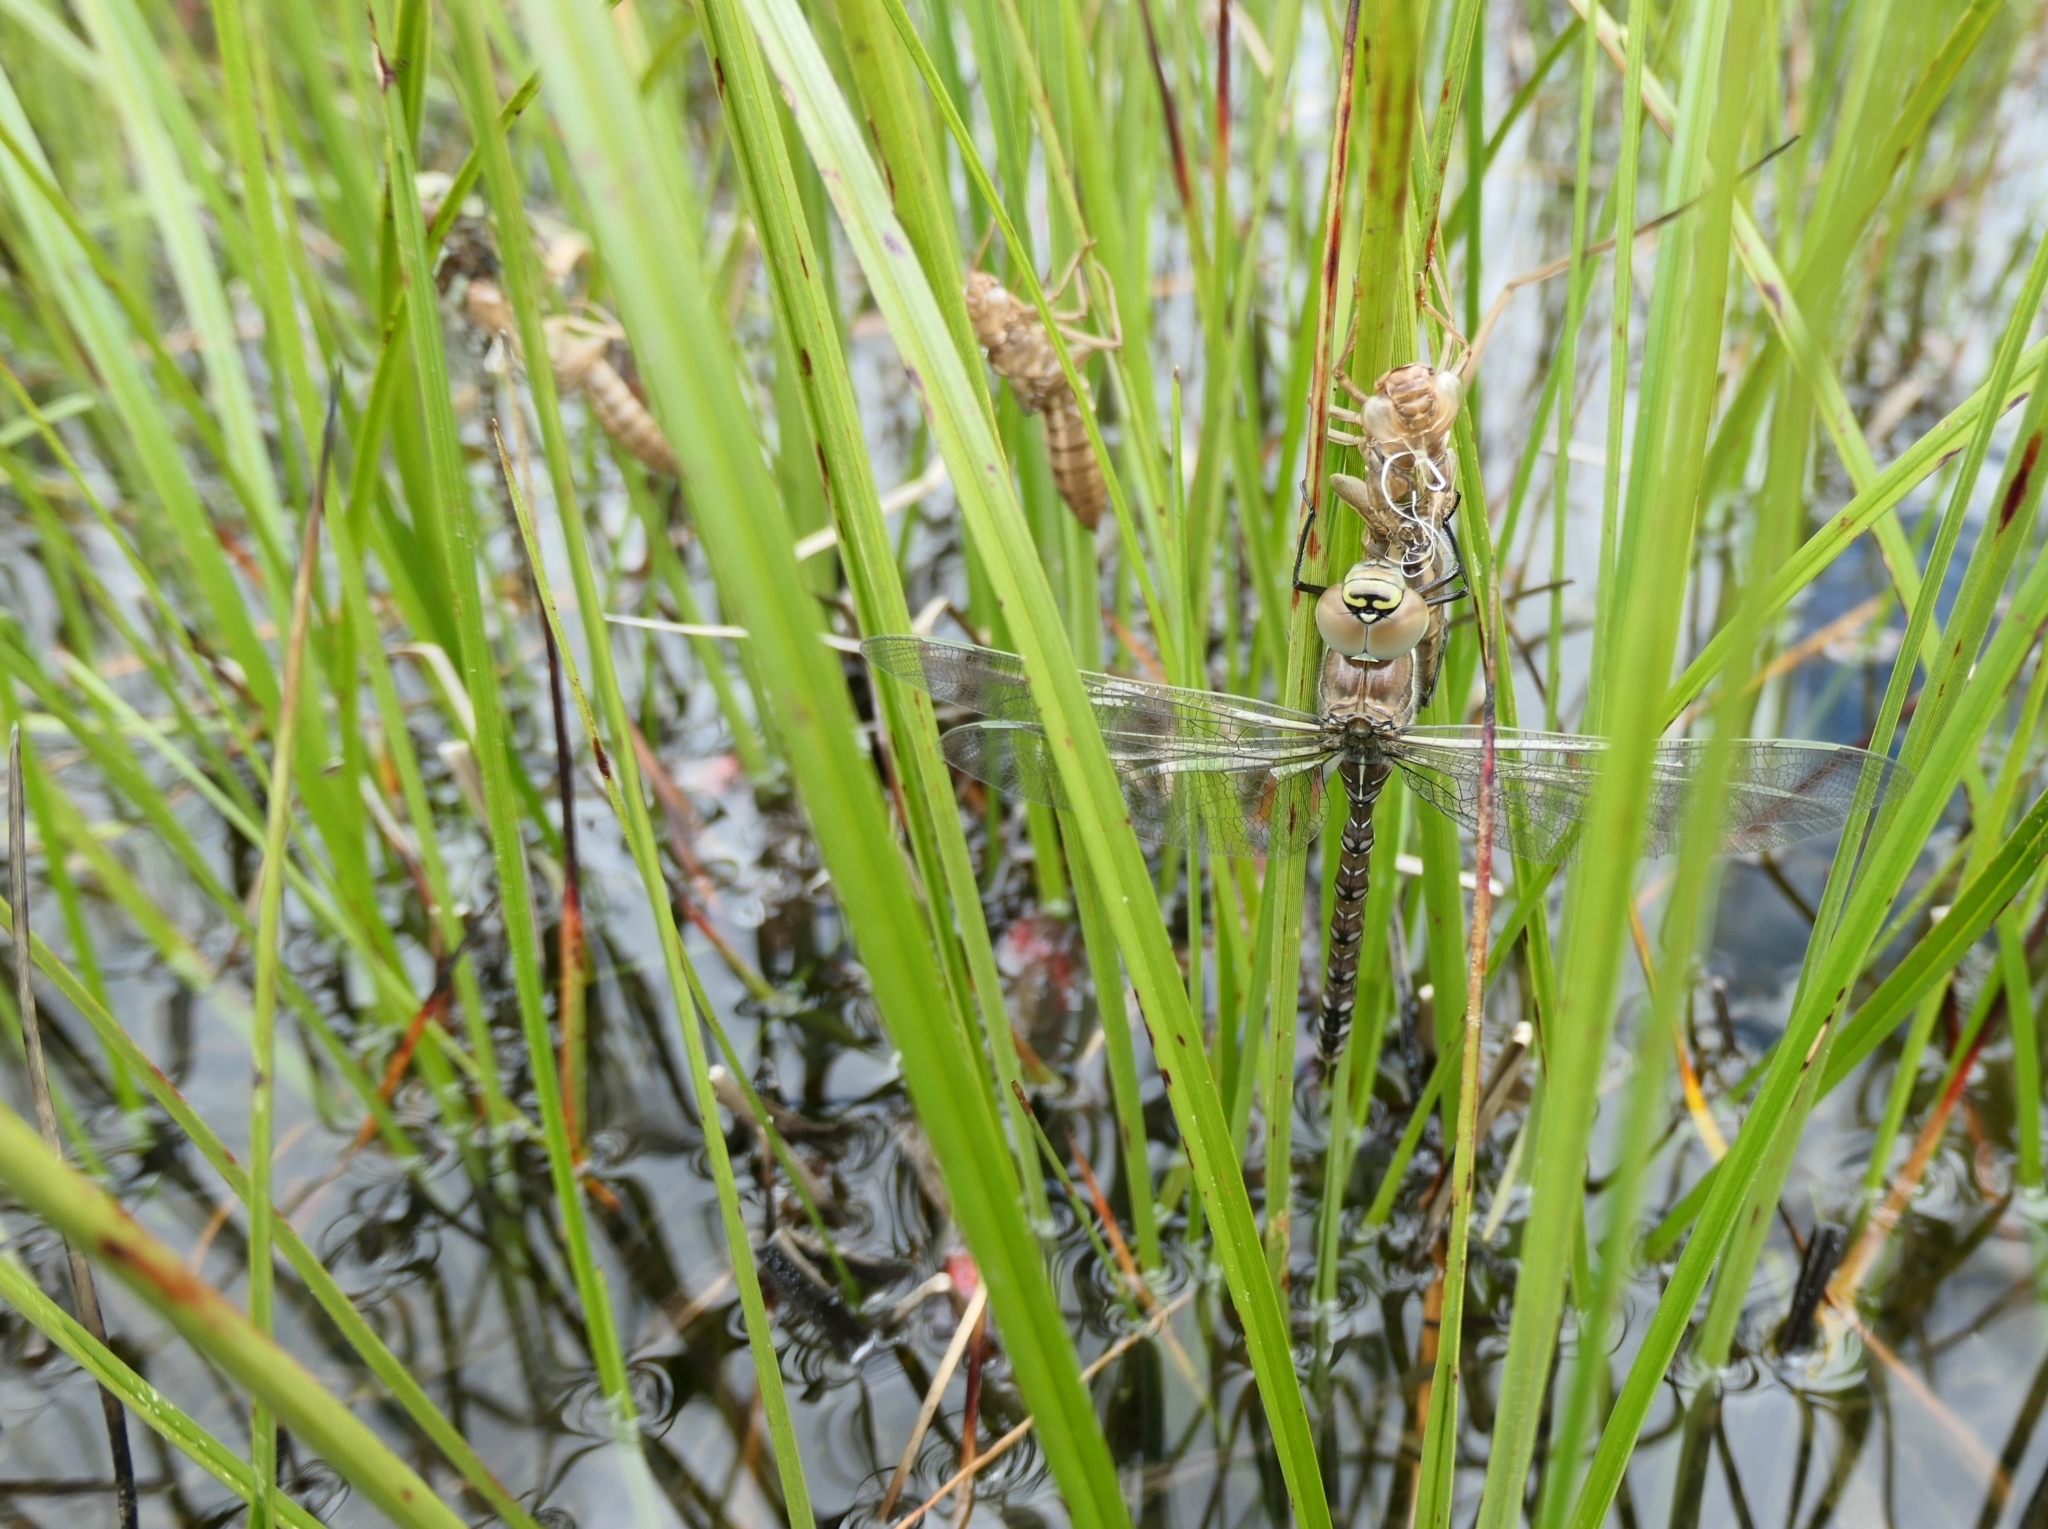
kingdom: Animalia
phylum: Arthropoda
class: Insecta
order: Odonata
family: Aeshnidae
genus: Aeshna
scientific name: Aeshna juncea
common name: Moorland hawker
